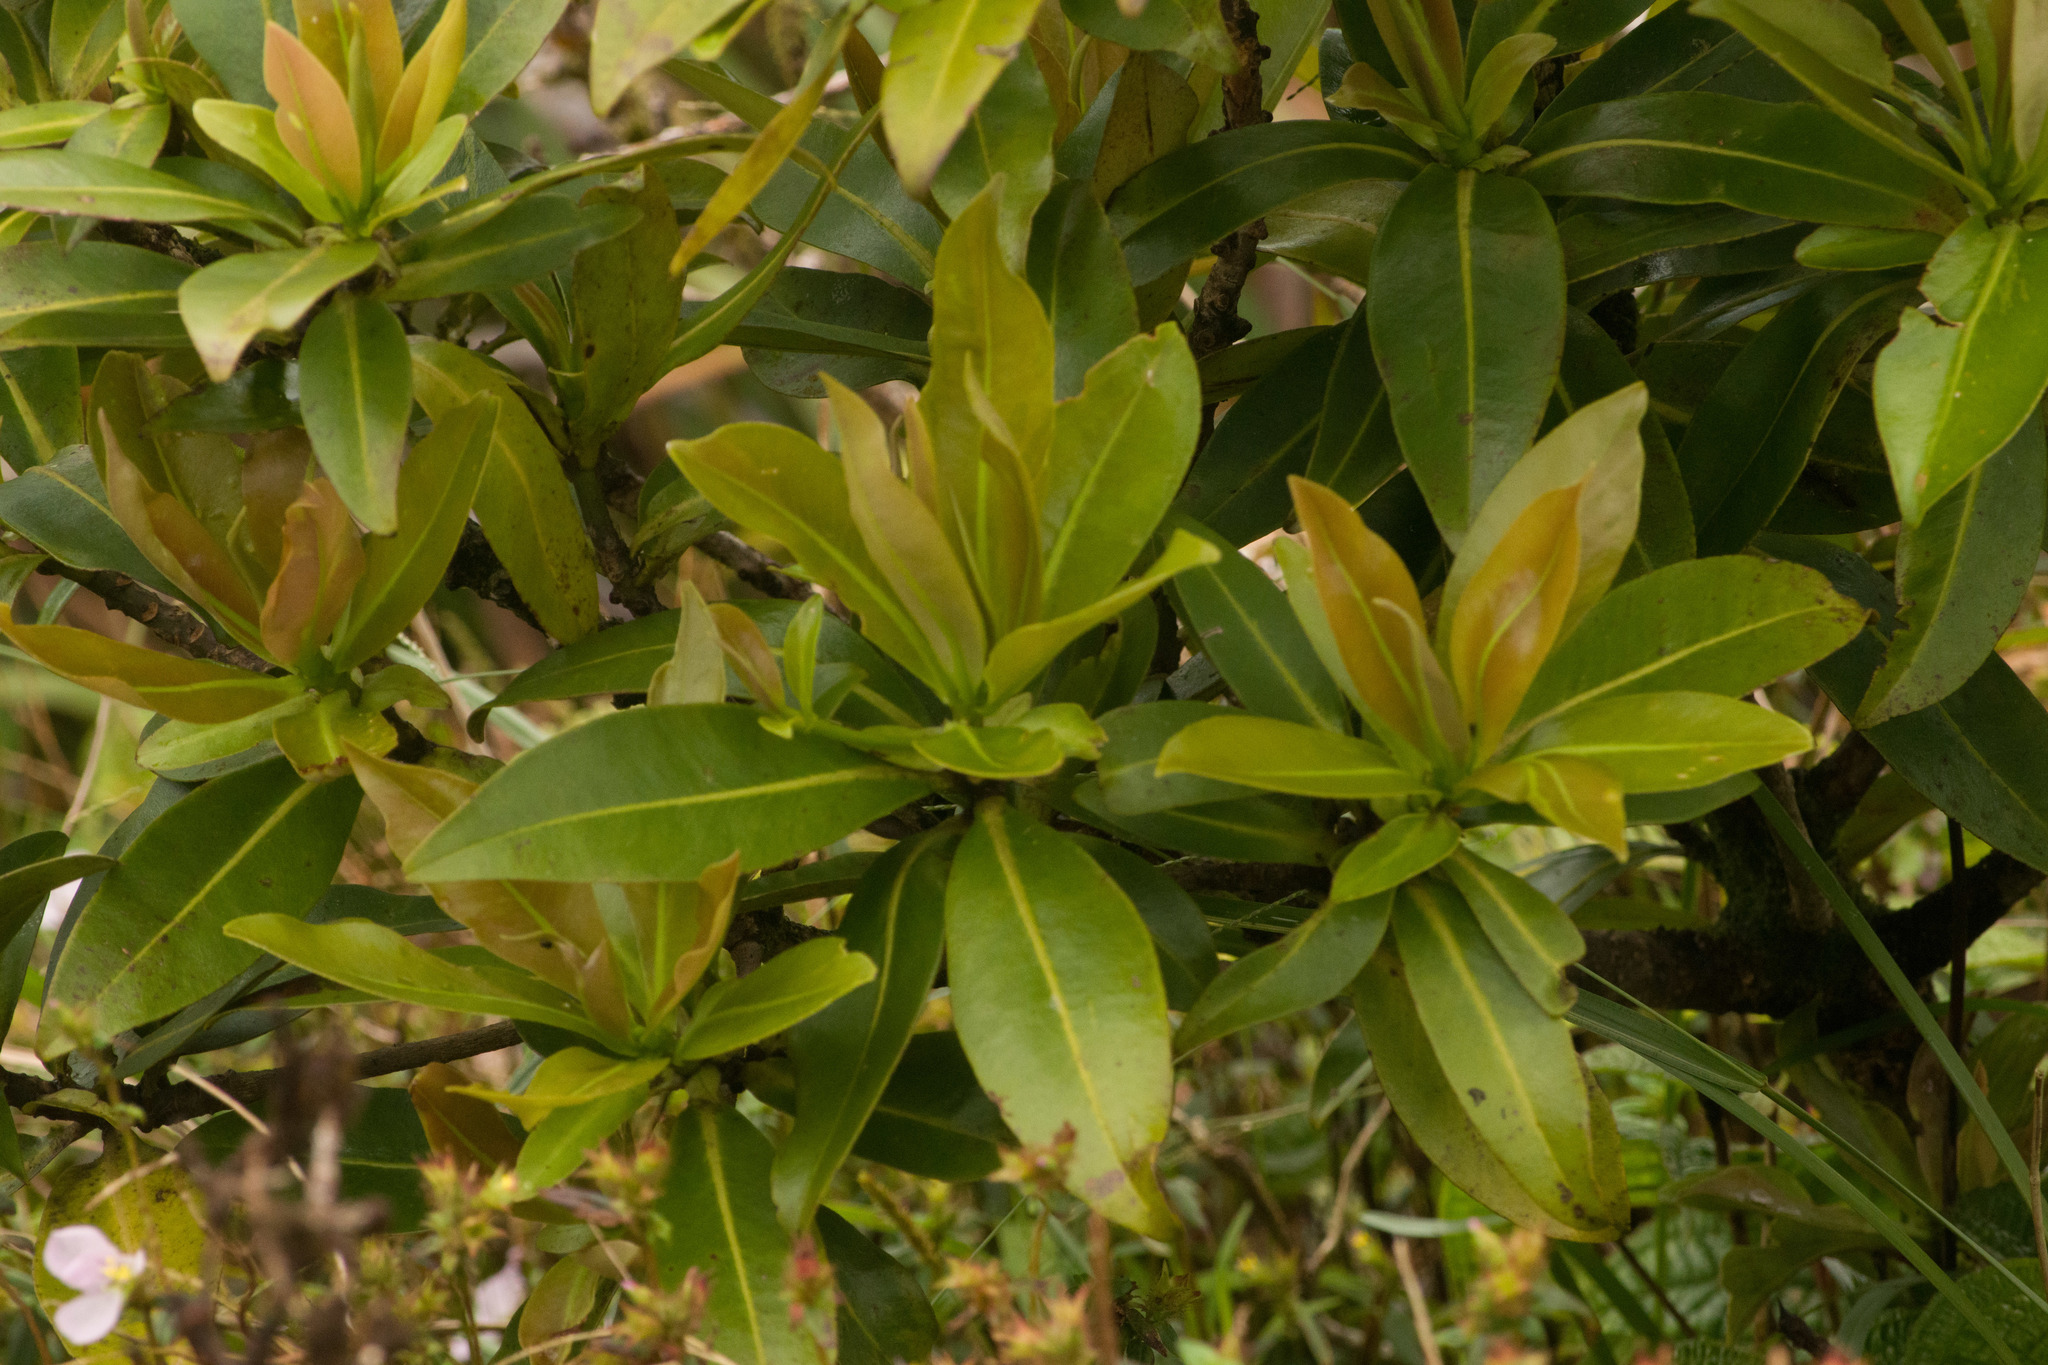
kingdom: Plantae
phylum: Tracheophyta
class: Magnoliopsida
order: Ericales
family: Primulaceae
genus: Myrsine
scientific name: Myrsine lessertiana
